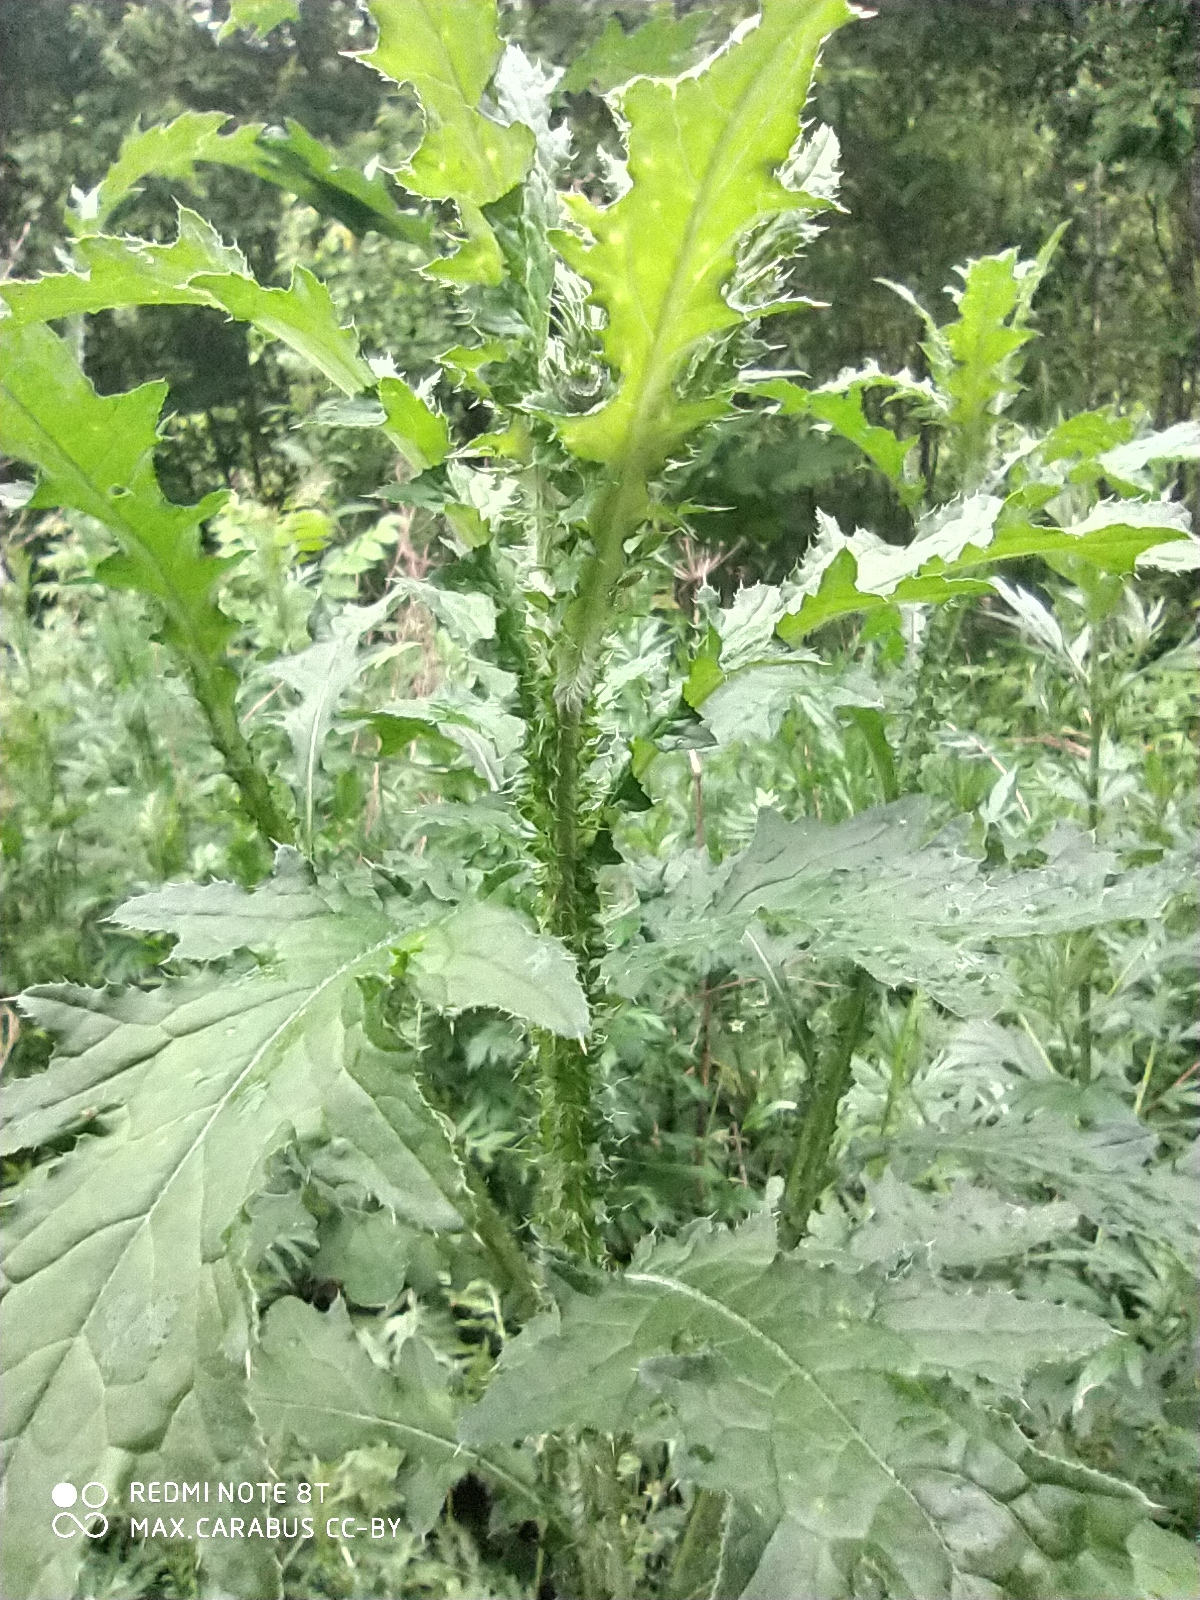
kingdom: Plantae
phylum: Tracheophyta
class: Magnoliopsida
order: Asterales
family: Asteraceae
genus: Carduus
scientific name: Carduus crispus
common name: Welted thistle
